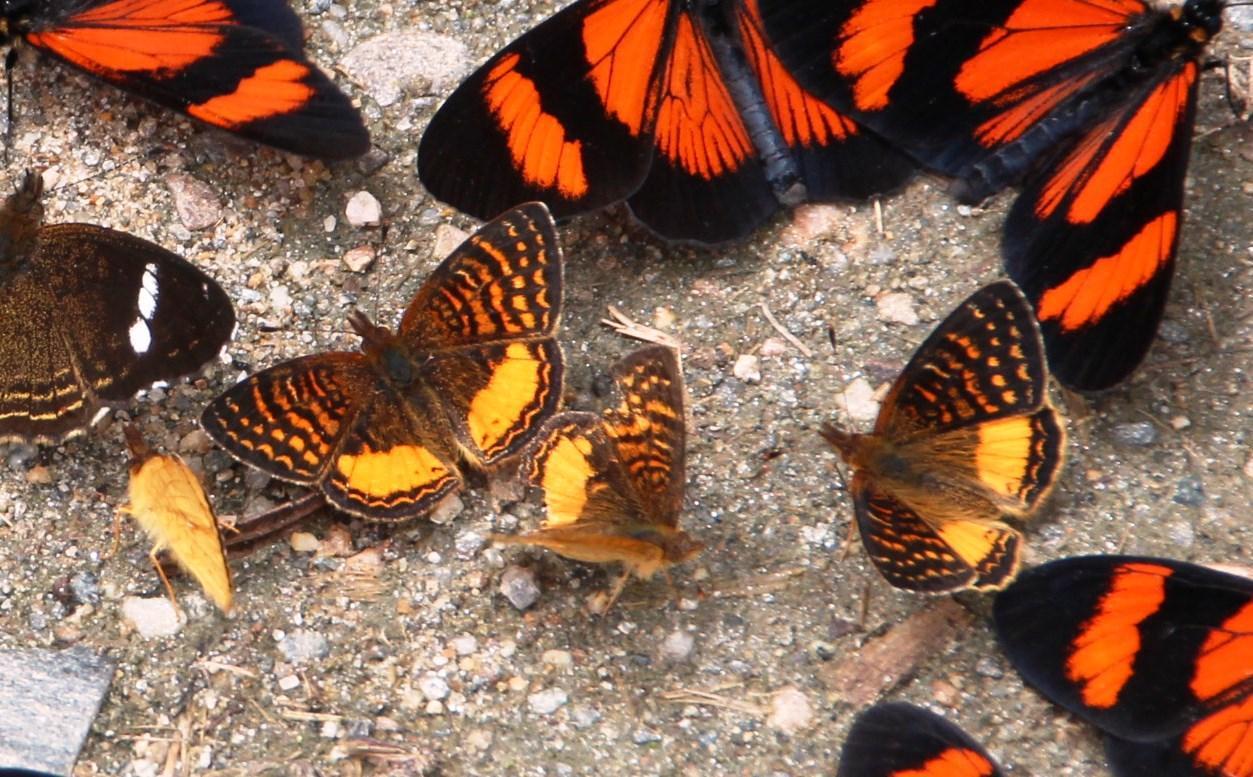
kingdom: Animalia
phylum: Arthropoda
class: Insecta
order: Lepidoptera
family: Nymphalidae
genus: Higginsius
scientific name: Higginsius fasciata
